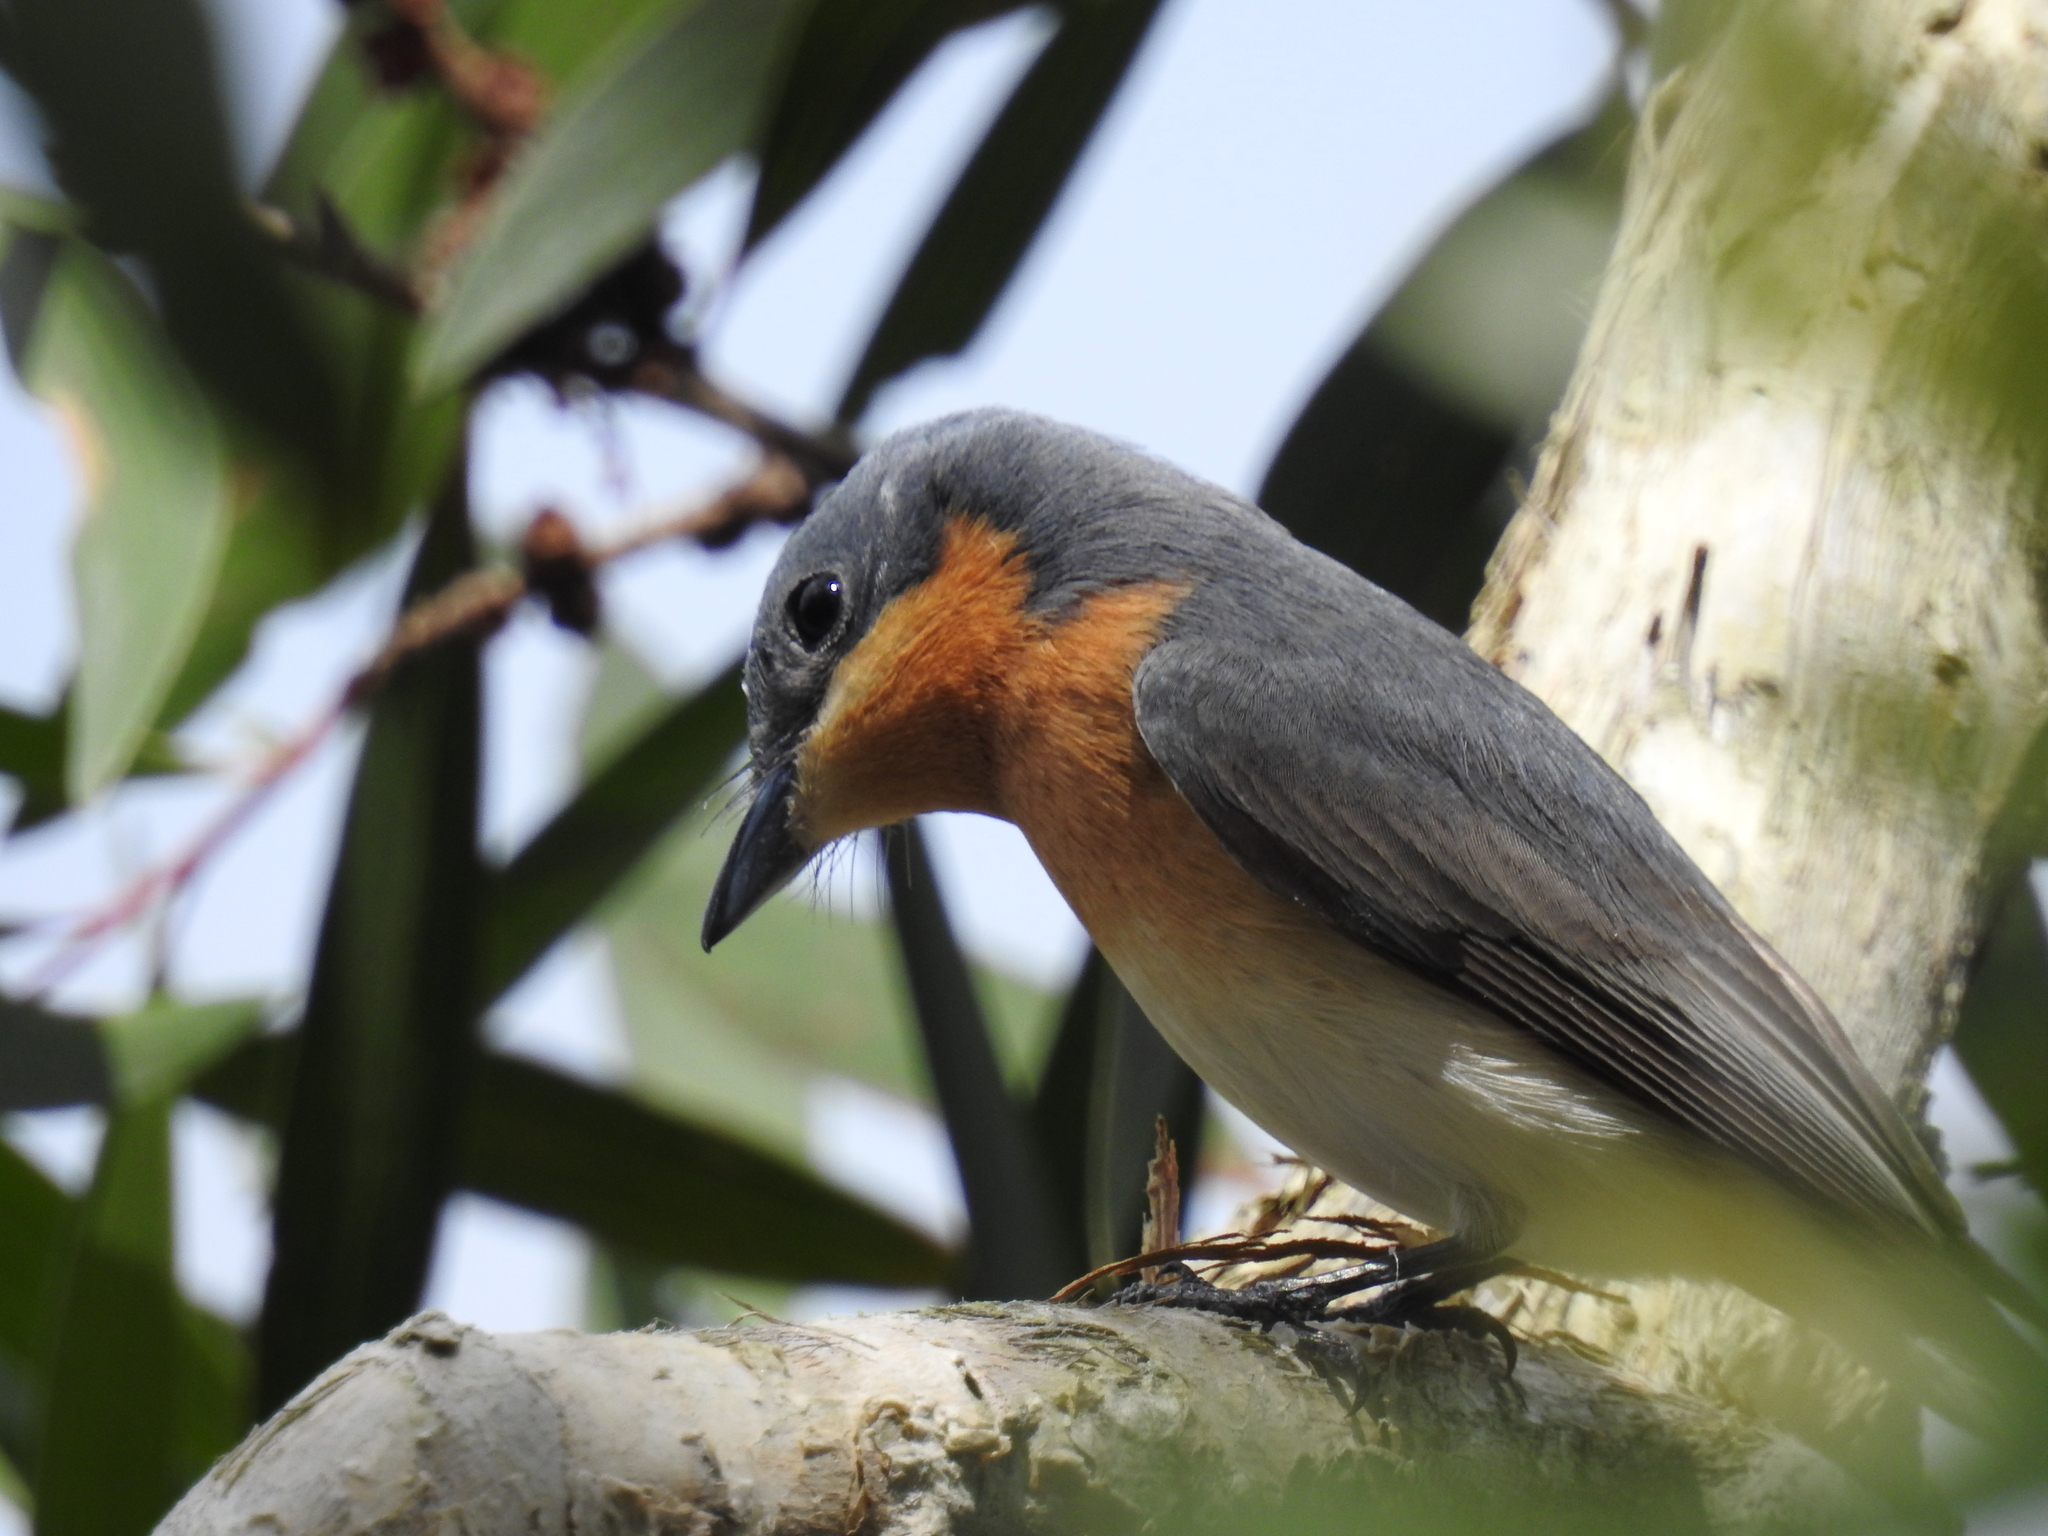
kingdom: Animalia
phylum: Chordata
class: Aves
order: Passeriformes
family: Monarchidae
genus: Myiagra
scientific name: Myiagra rubecula
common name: Leaden flycatcher
